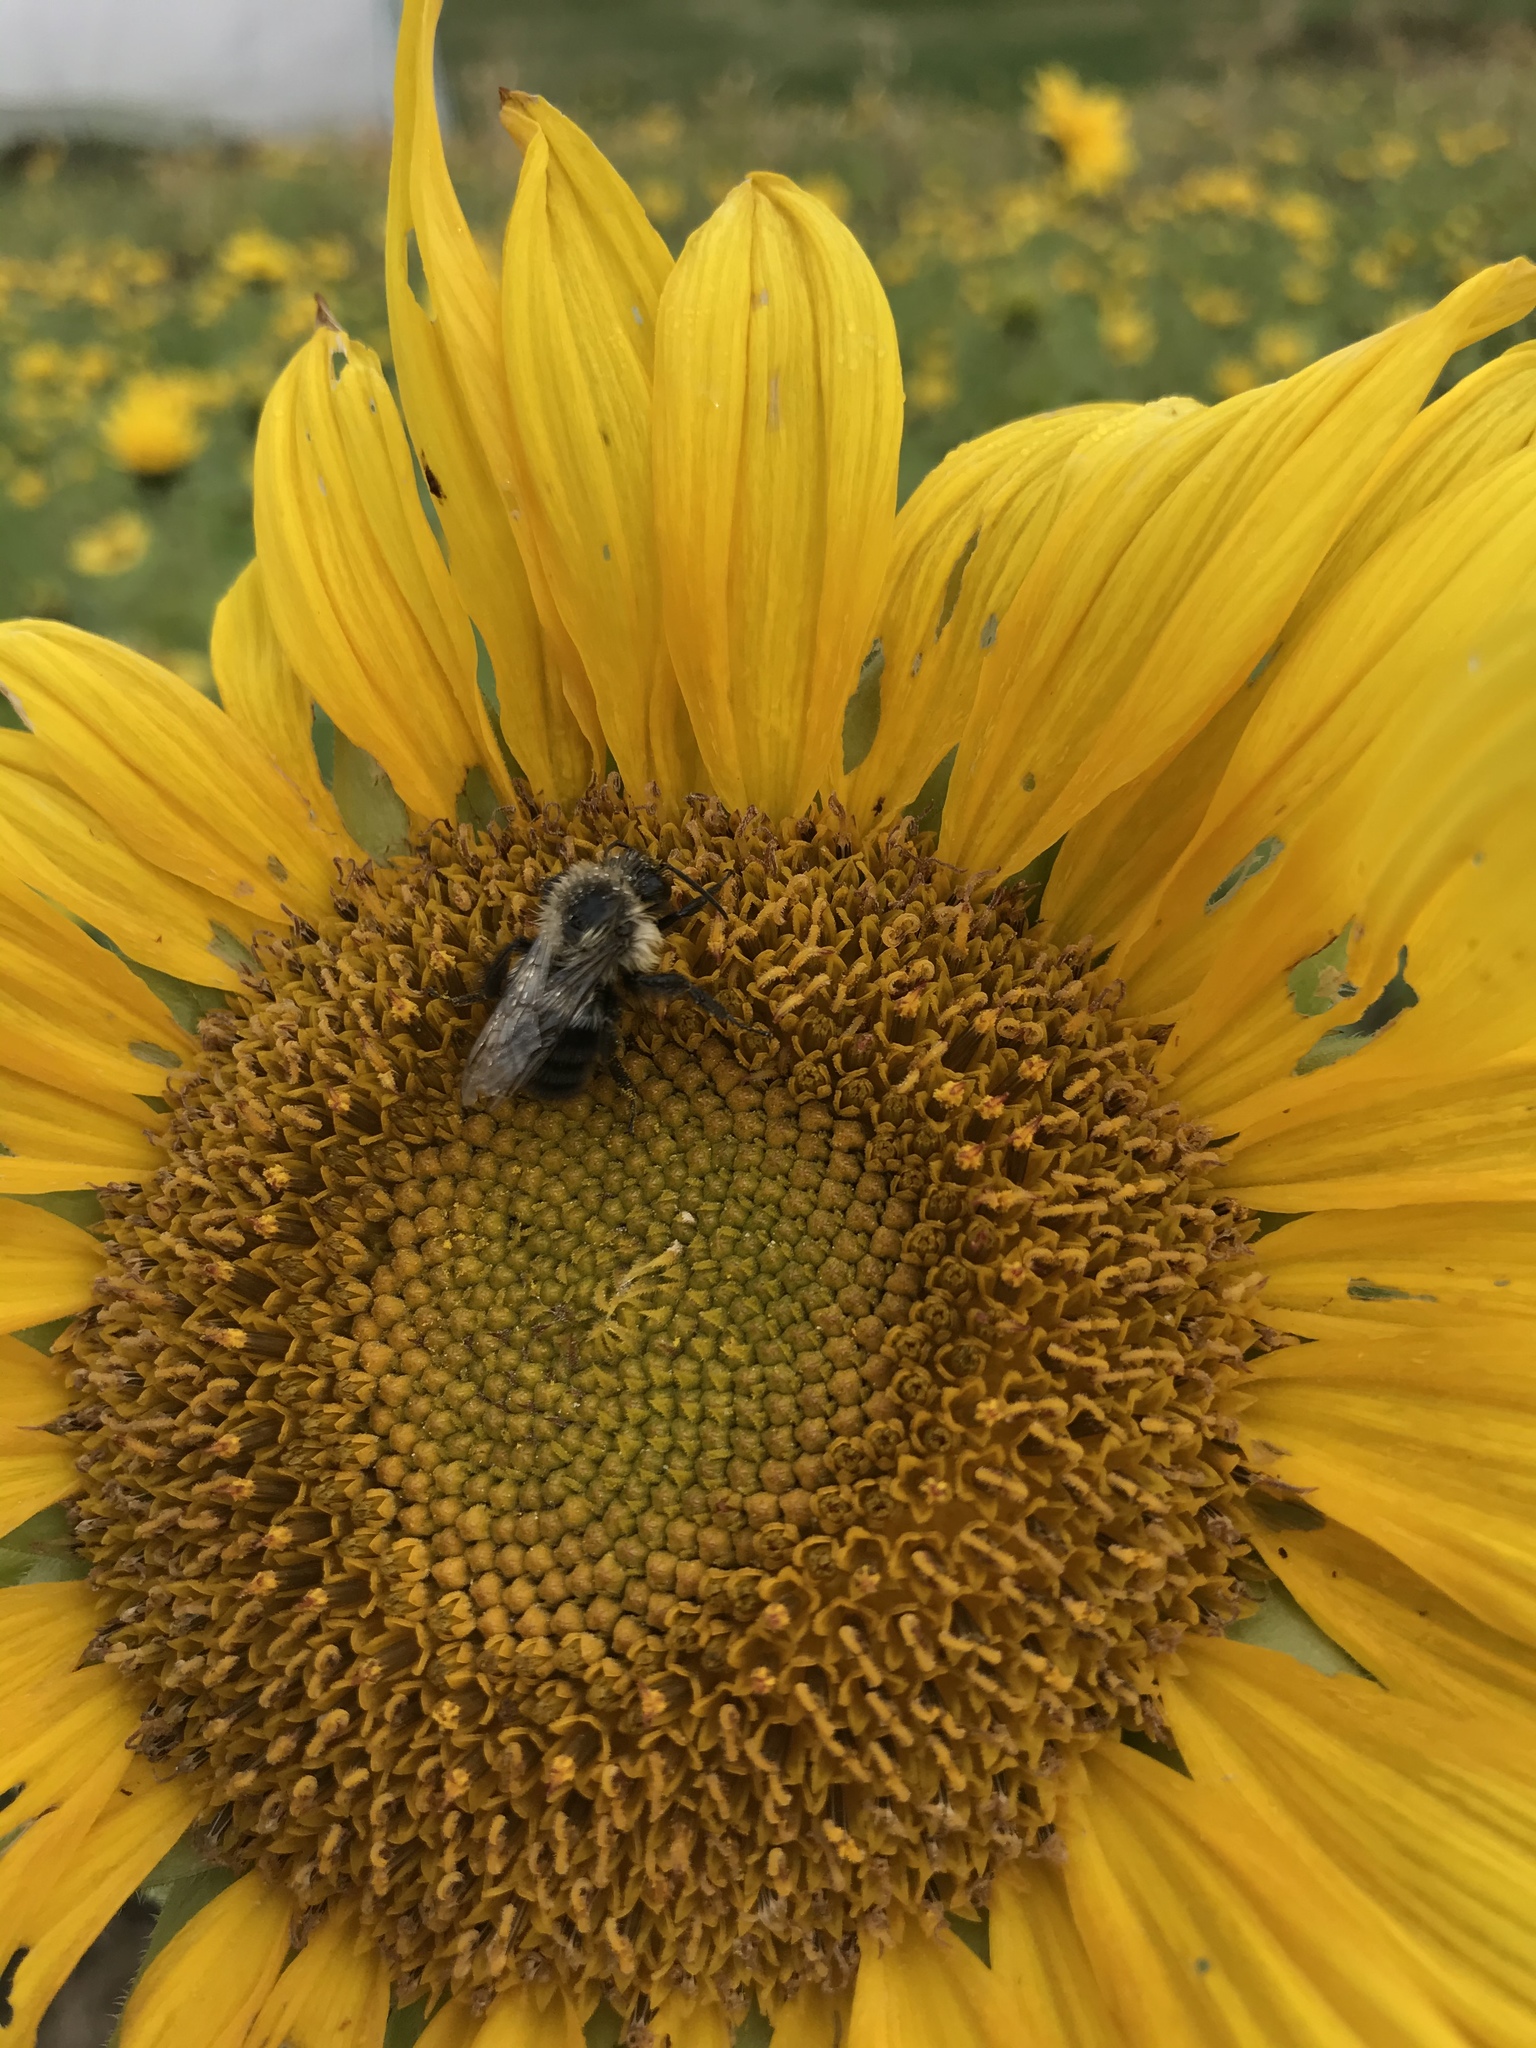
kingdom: Animalia
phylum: Arthropoda
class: Insecta
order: Hymenoptera
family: Apidae
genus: Bombus
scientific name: Bombus impatiens
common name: Common eastern bumble bee
